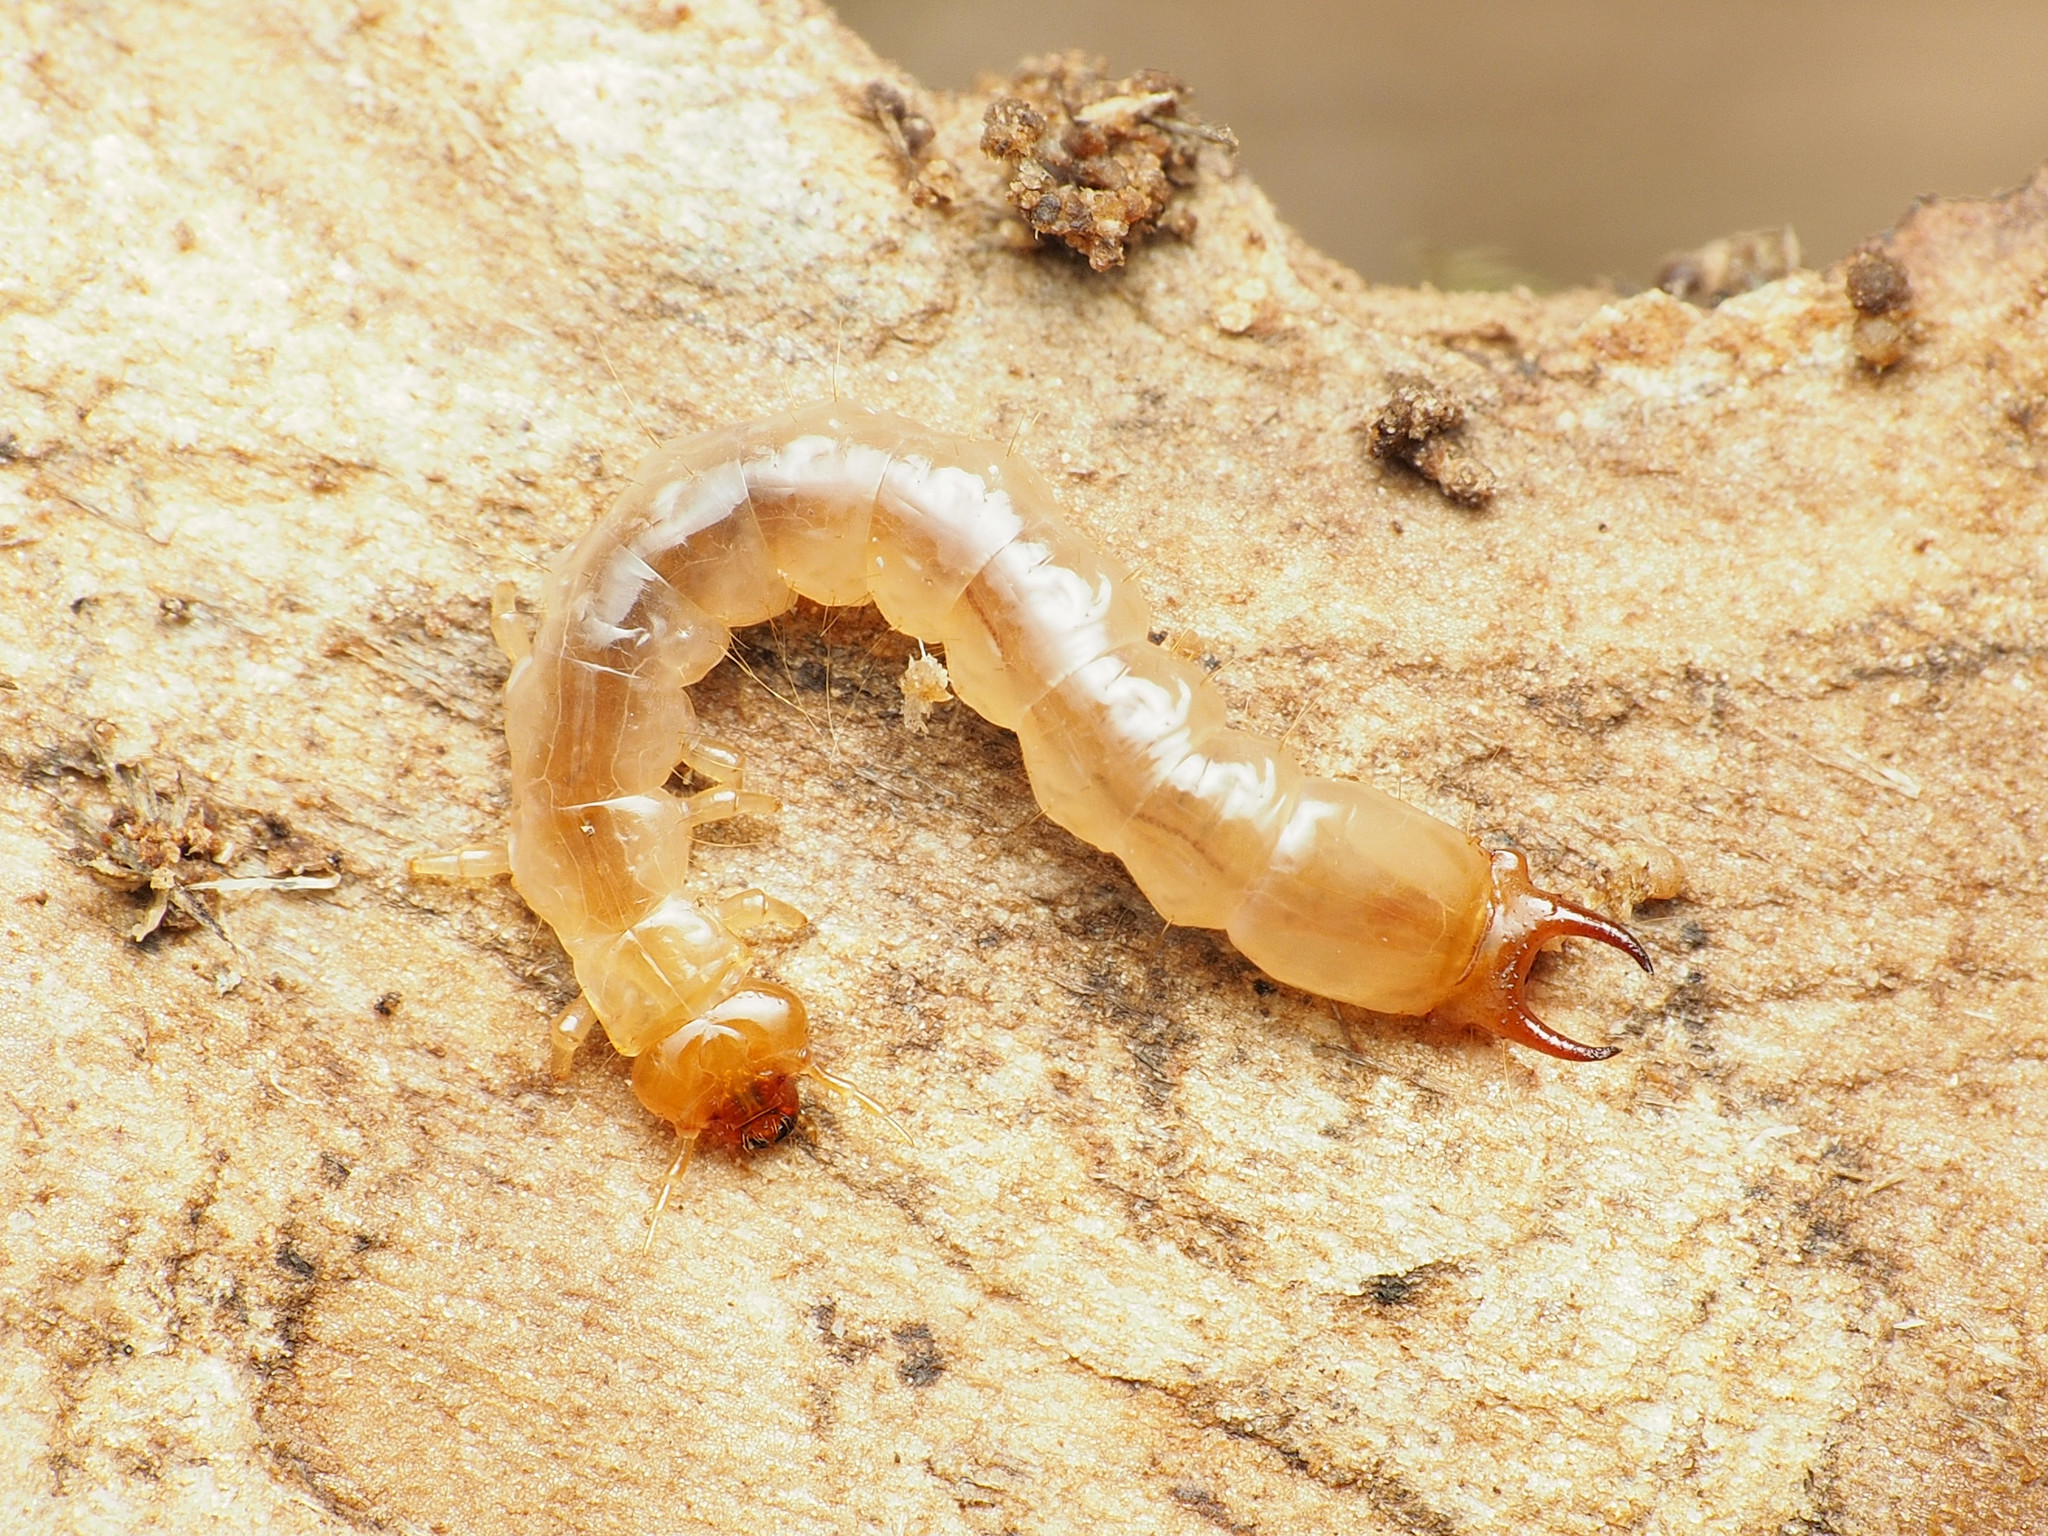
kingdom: Animalia
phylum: Arthropoda
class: Insecta
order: Coleoptera
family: Pyrochroidae
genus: Dendroides
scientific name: Dendroides canadensis
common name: Canada fire-colored beetle
